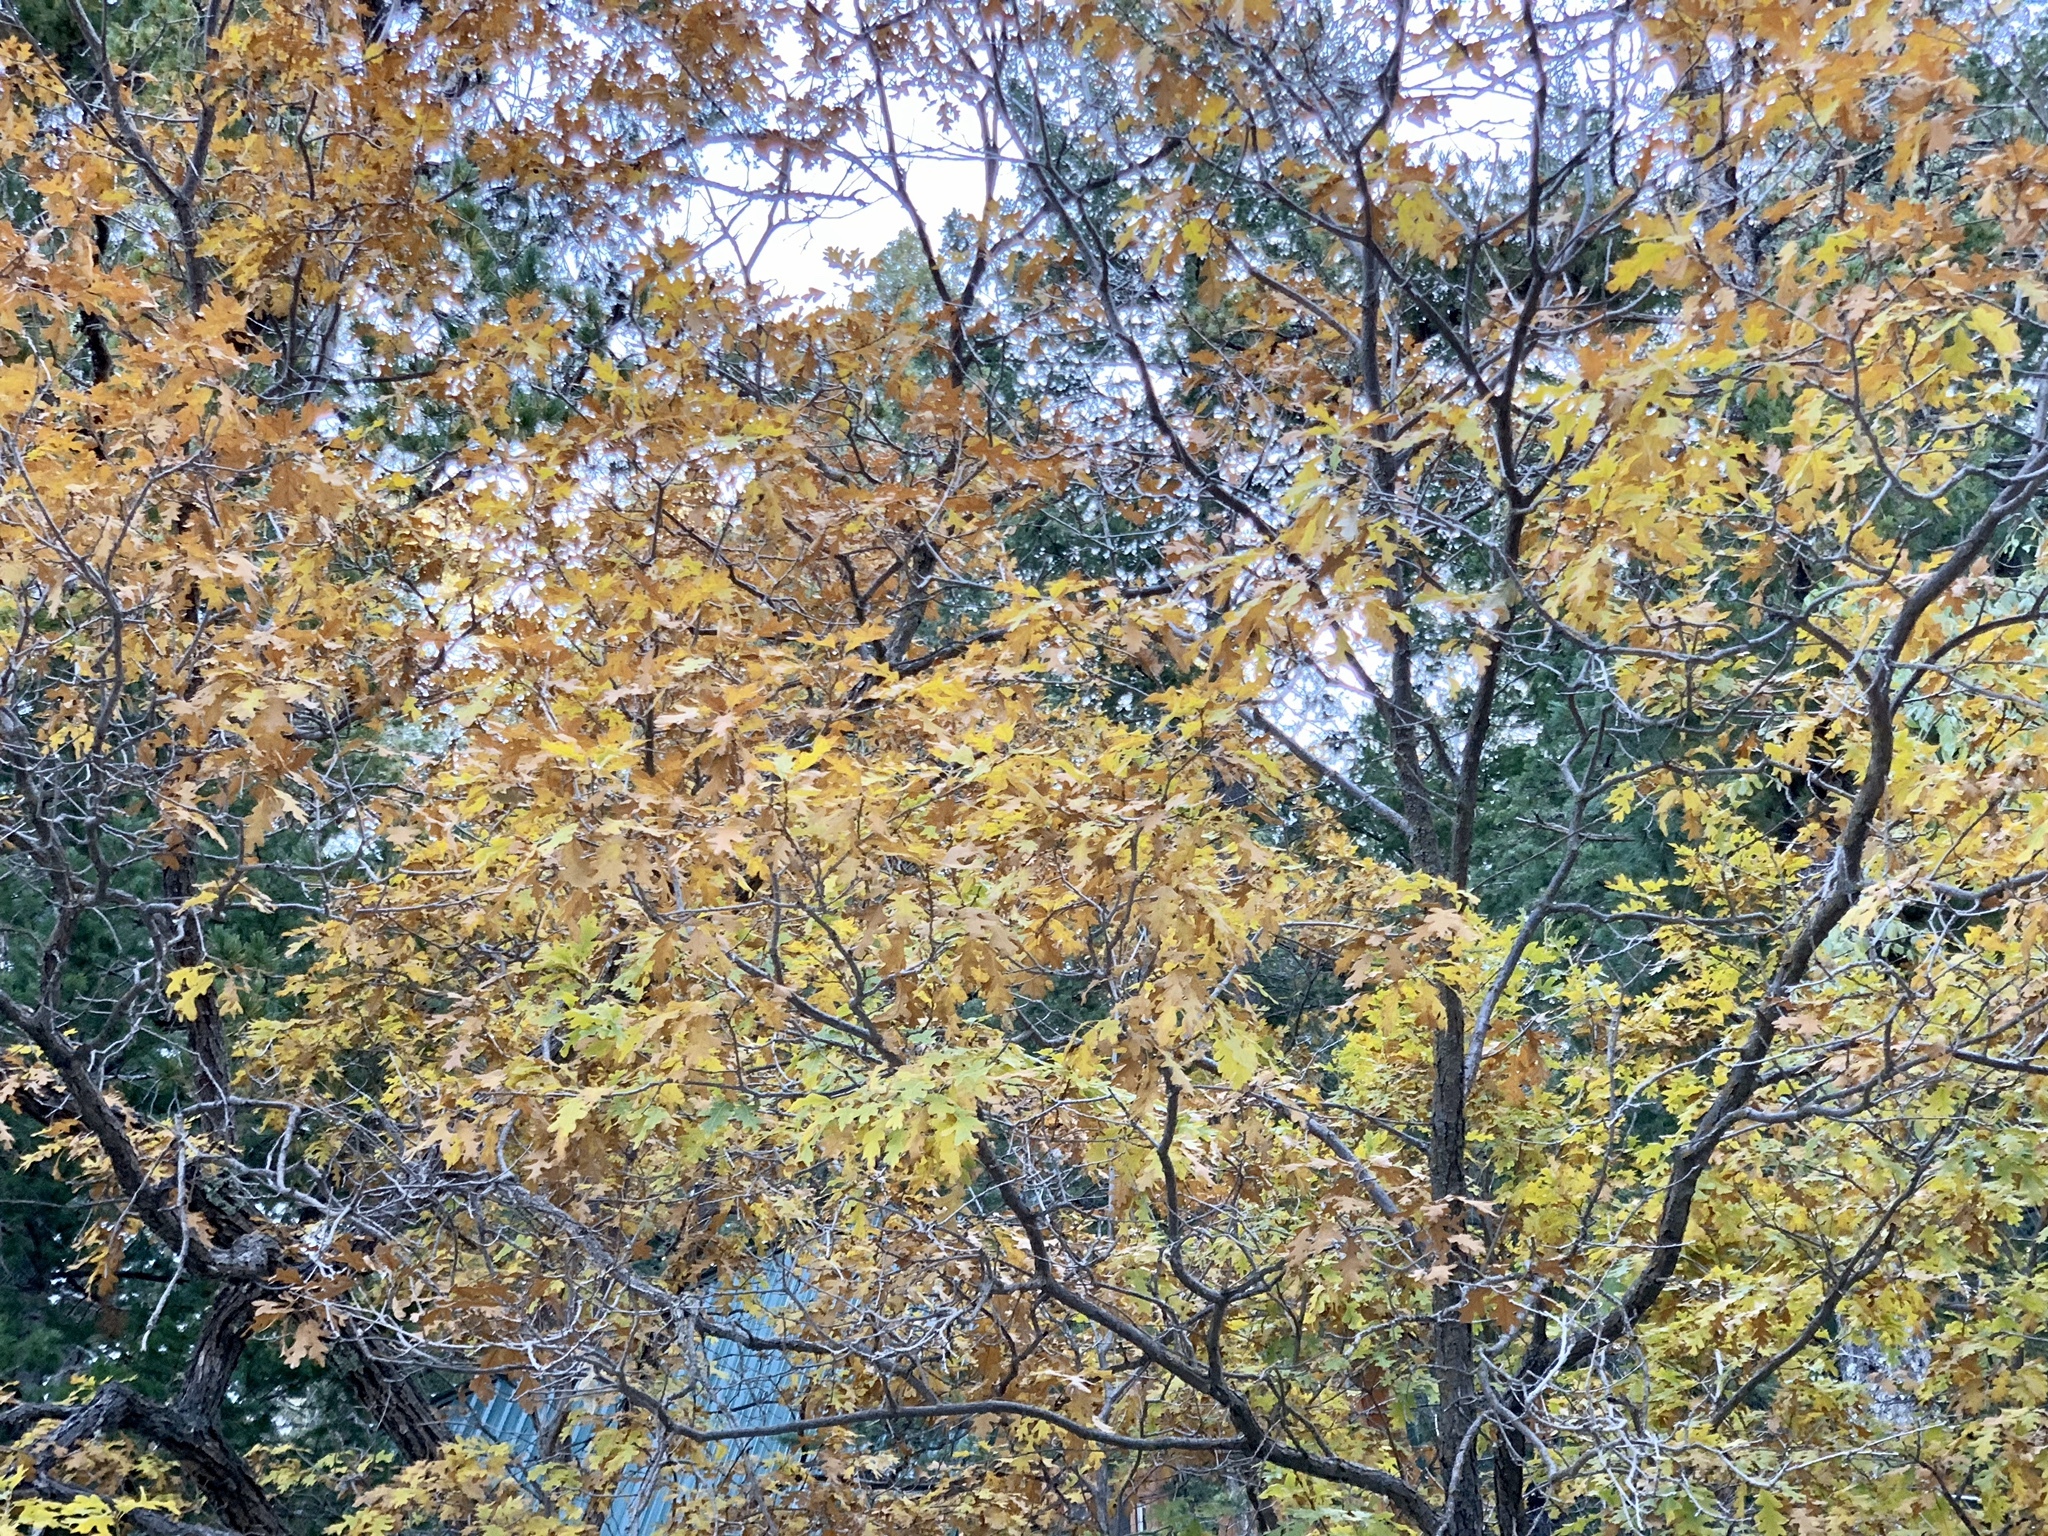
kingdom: Plantae
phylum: Tracheophyta
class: Magnoliopsida
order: Fagales
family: Fagaceae
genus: Quercus
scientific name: Quercus gambelii
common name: Gambel oak
